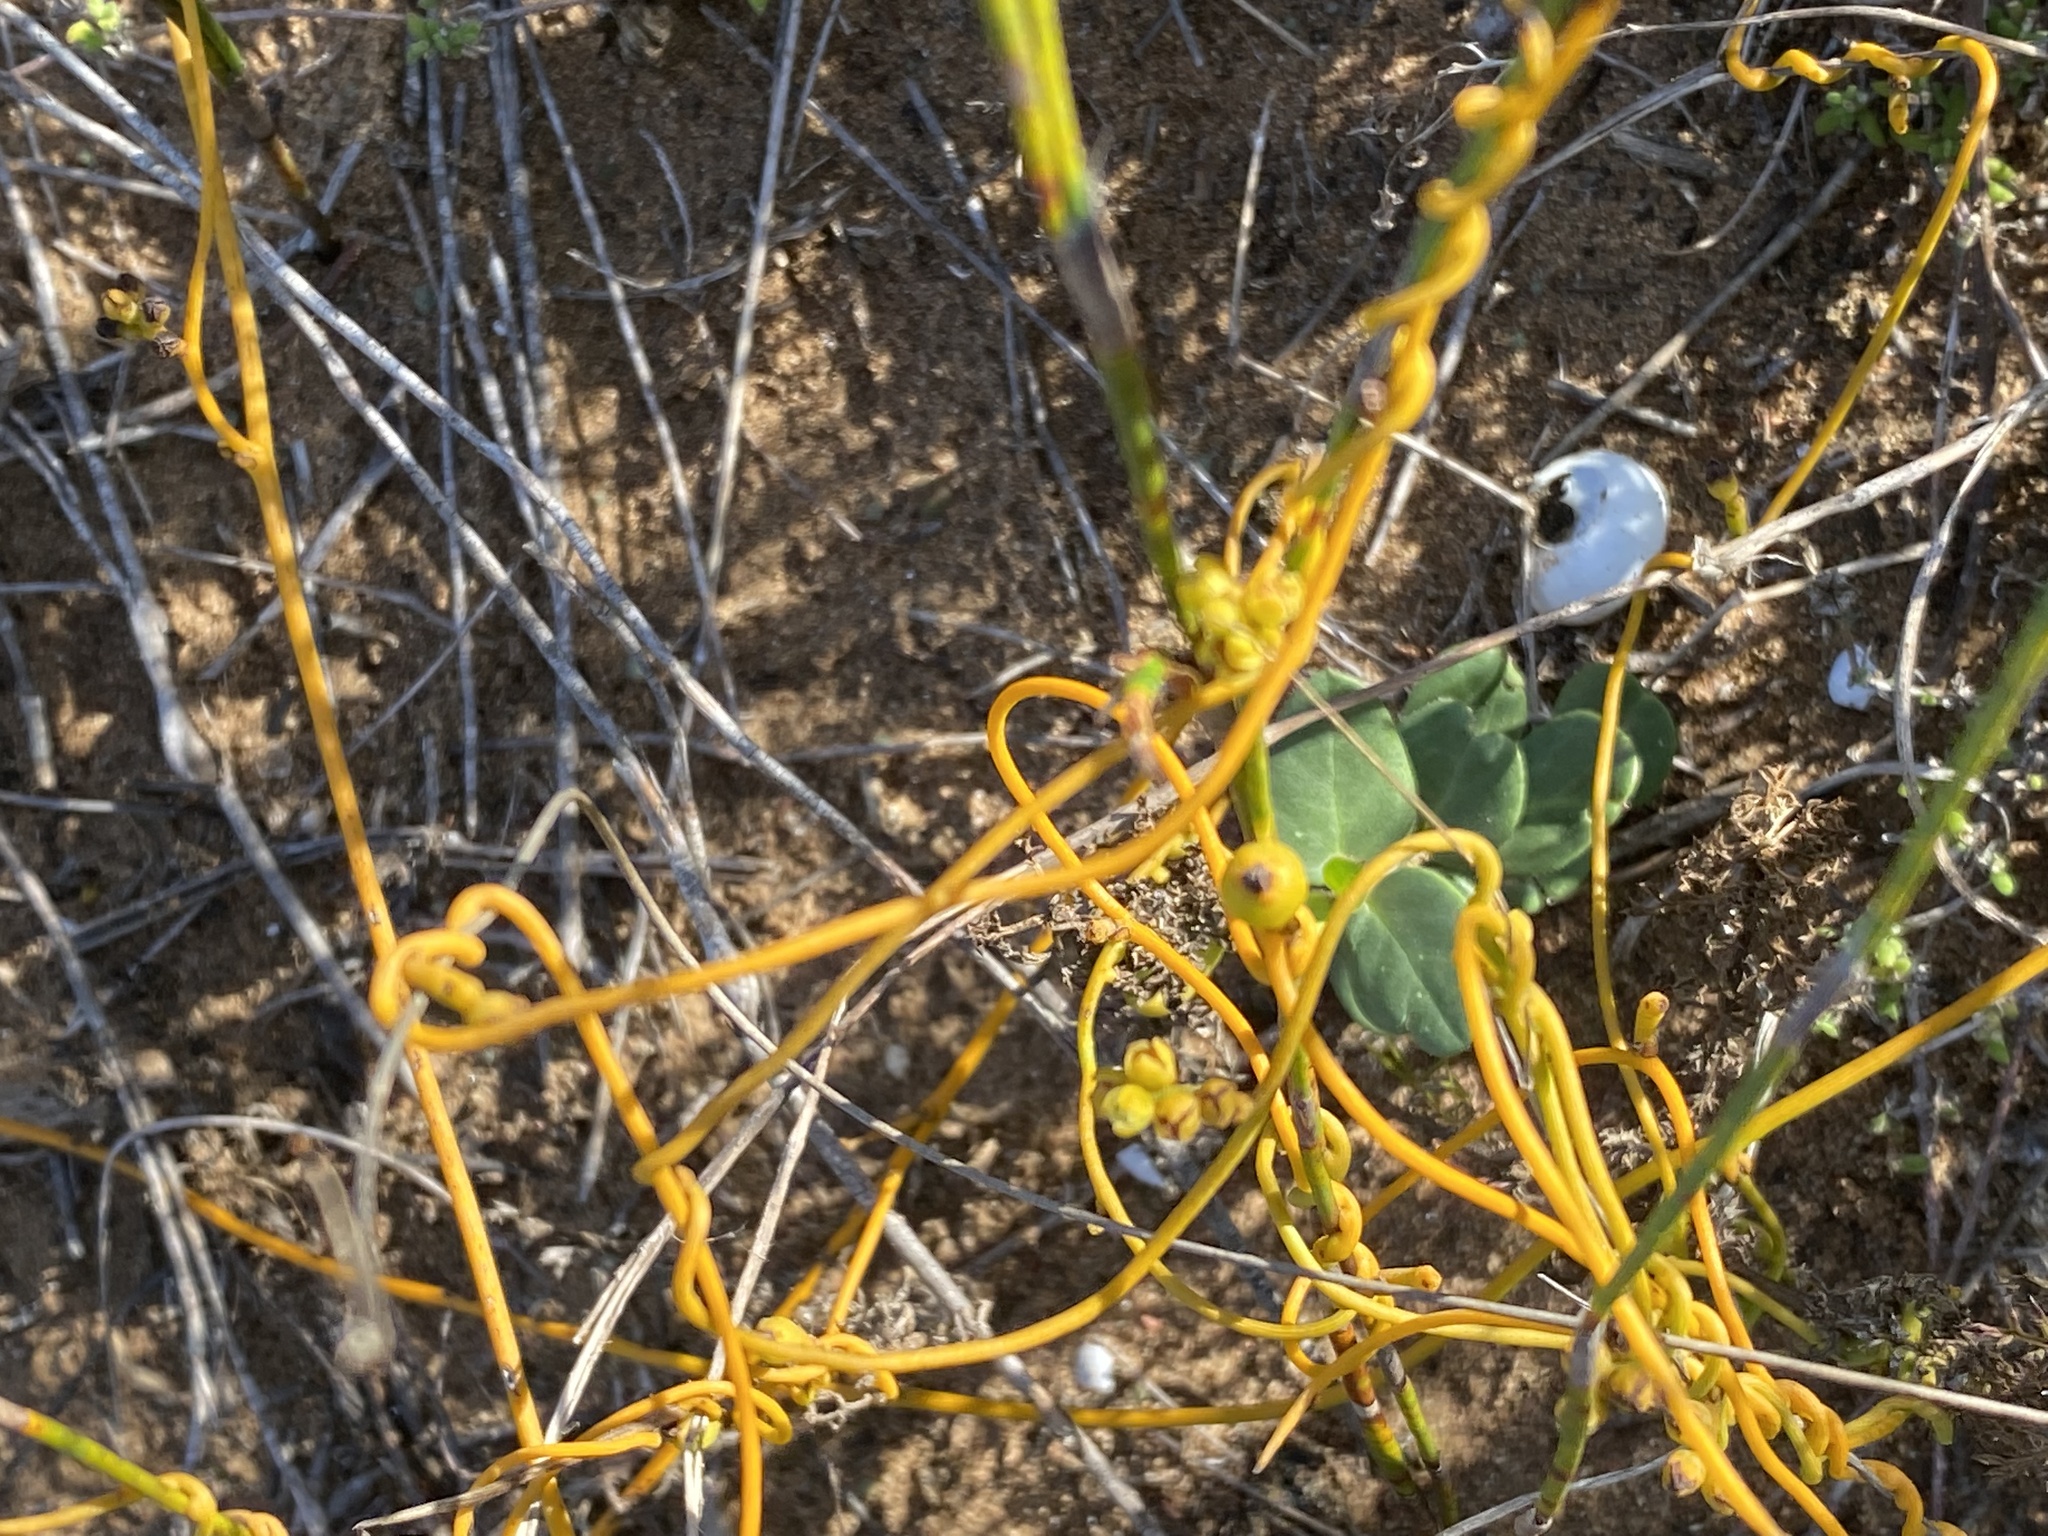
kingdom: Plantae
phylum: Tracheophyta
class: Magnoliopsida
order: Laurales
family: Lauraceae
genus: Cassytha
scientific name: Cassytha ciliolata
